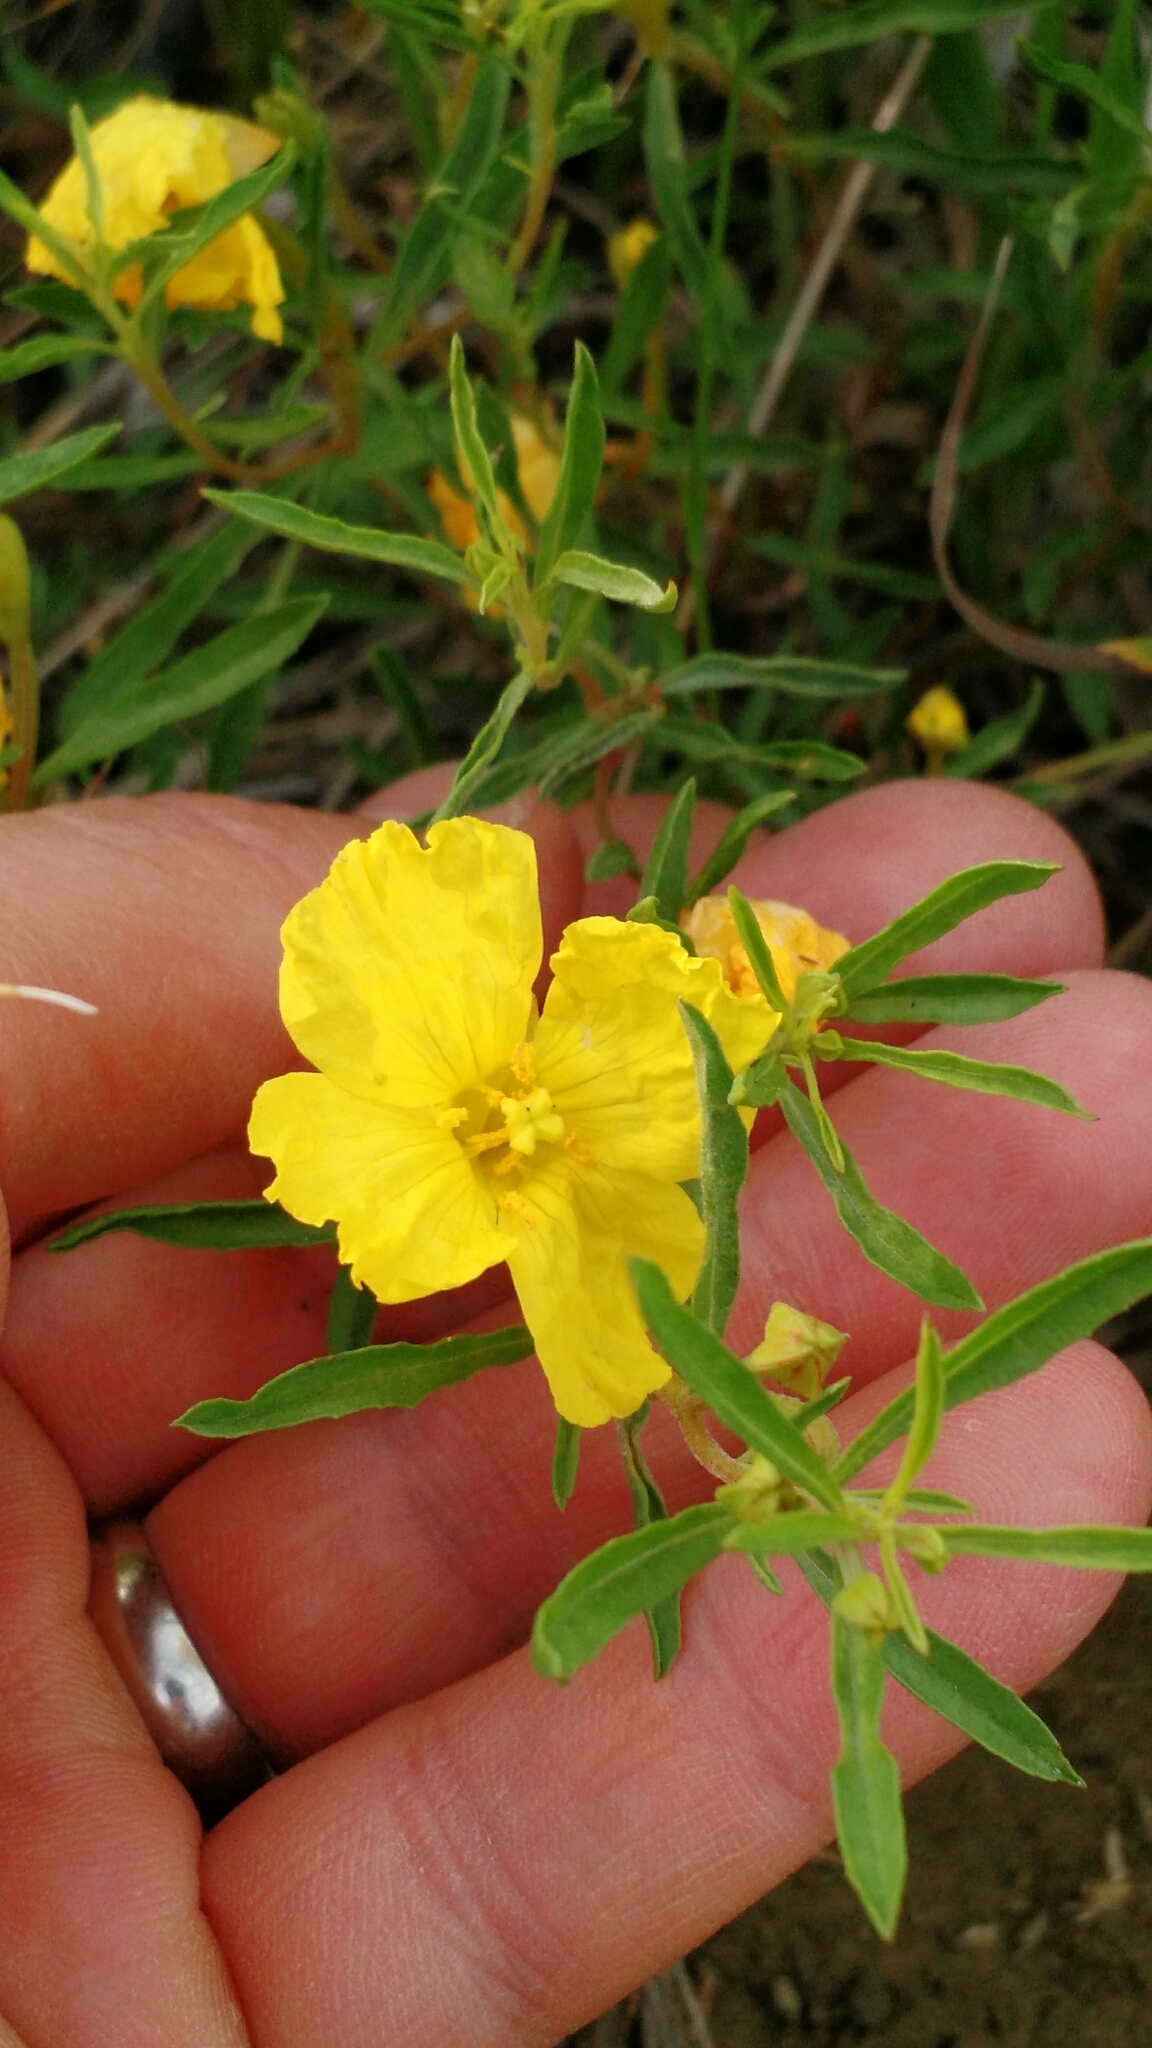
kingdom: Plantae
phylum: Tracheophyta
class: Magnoliopsida
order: Myrtales
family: Onagraceae
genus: Oenothera
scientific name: Oenothera serrulata
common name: Half-shrub calylophus
